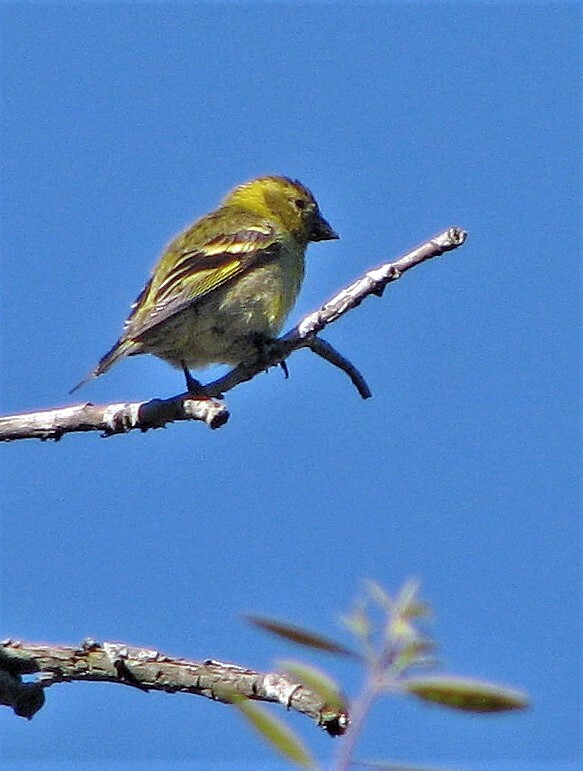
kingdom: Animalia
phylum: Chordata
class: Aves
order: Passeriformes
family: Fringillidae
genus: Spinus
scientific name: Spinus barbatus
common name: Black-chinned siskin
